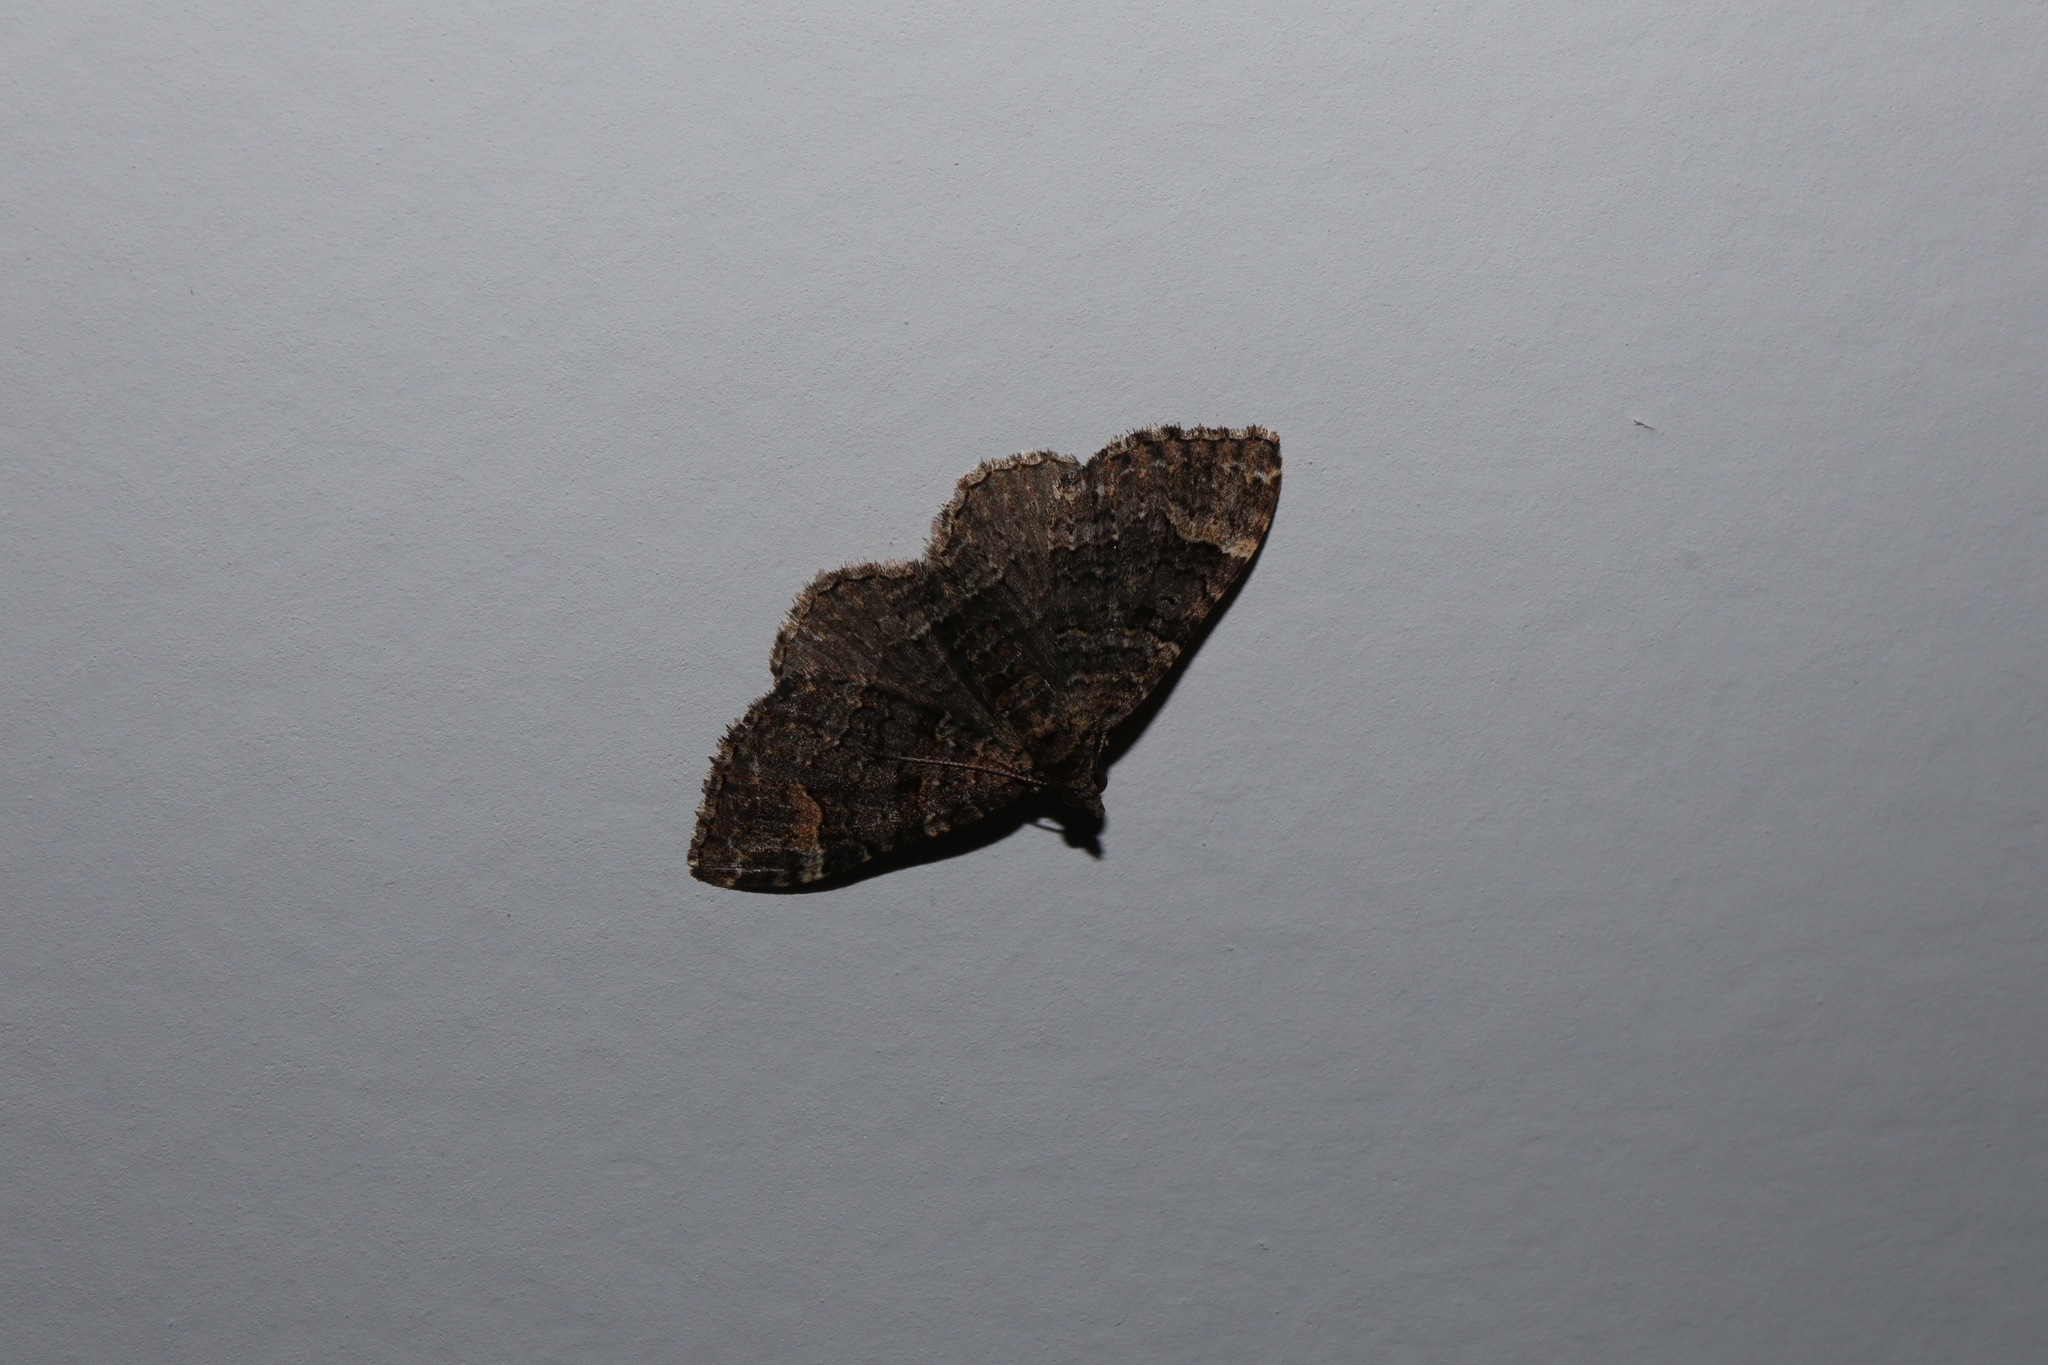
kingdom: Animalia
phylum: Arthropoda
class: Insecta
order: Lepidoptera
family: Geometridae
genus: Epyaxa
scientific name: Epyaxa sodaliata
